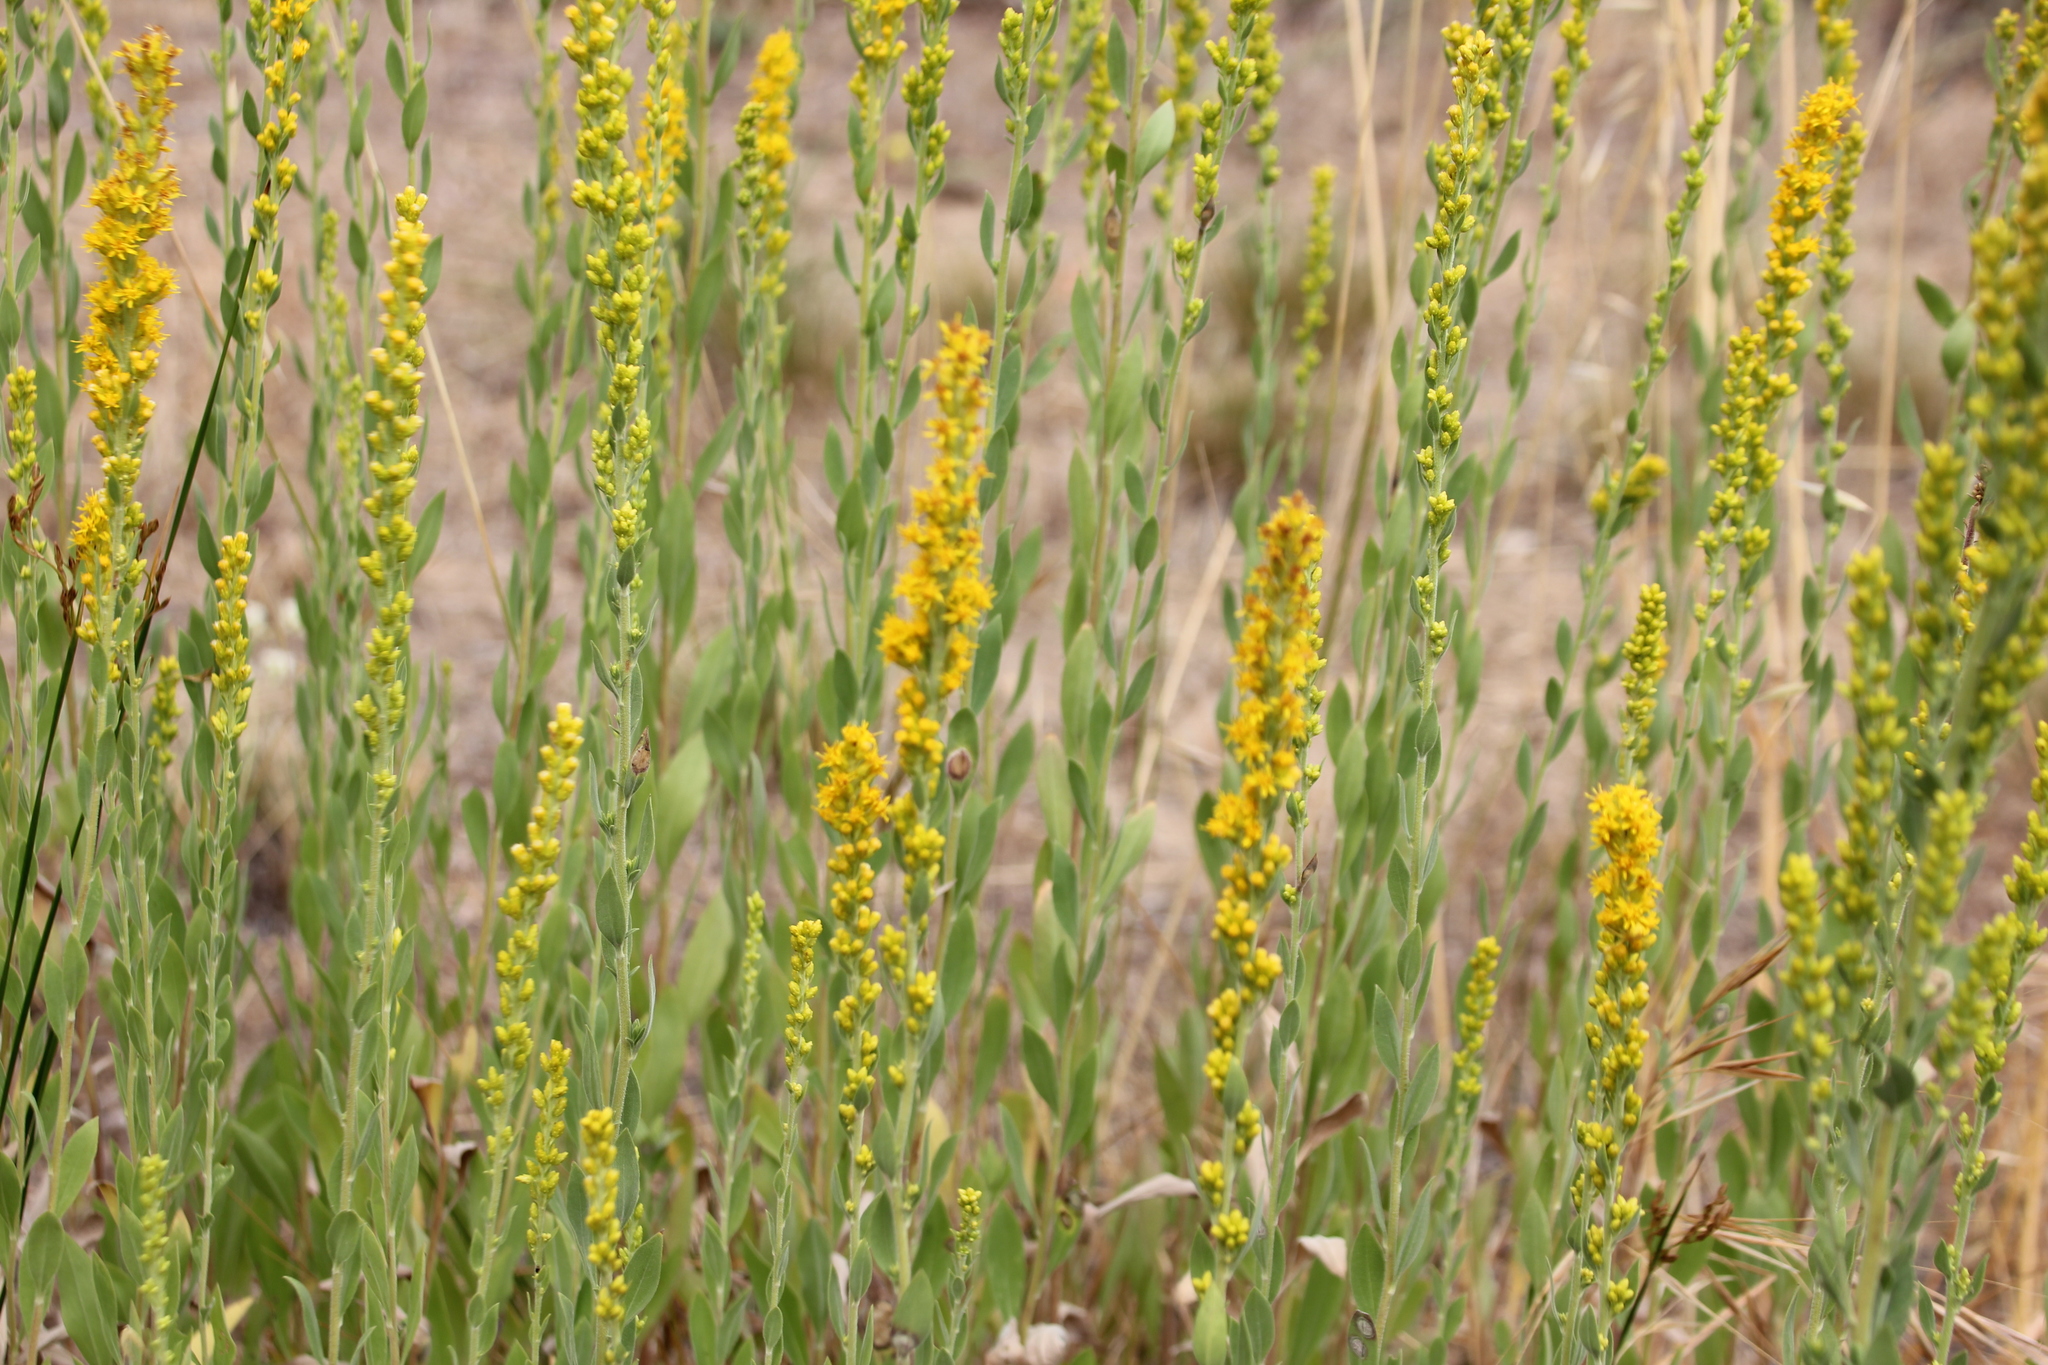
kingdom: Plantae
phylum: Tracheophyta
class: Magnoliopsida
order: Asterales
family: Asteraceae
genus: Solidago
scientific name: Solidago californica
